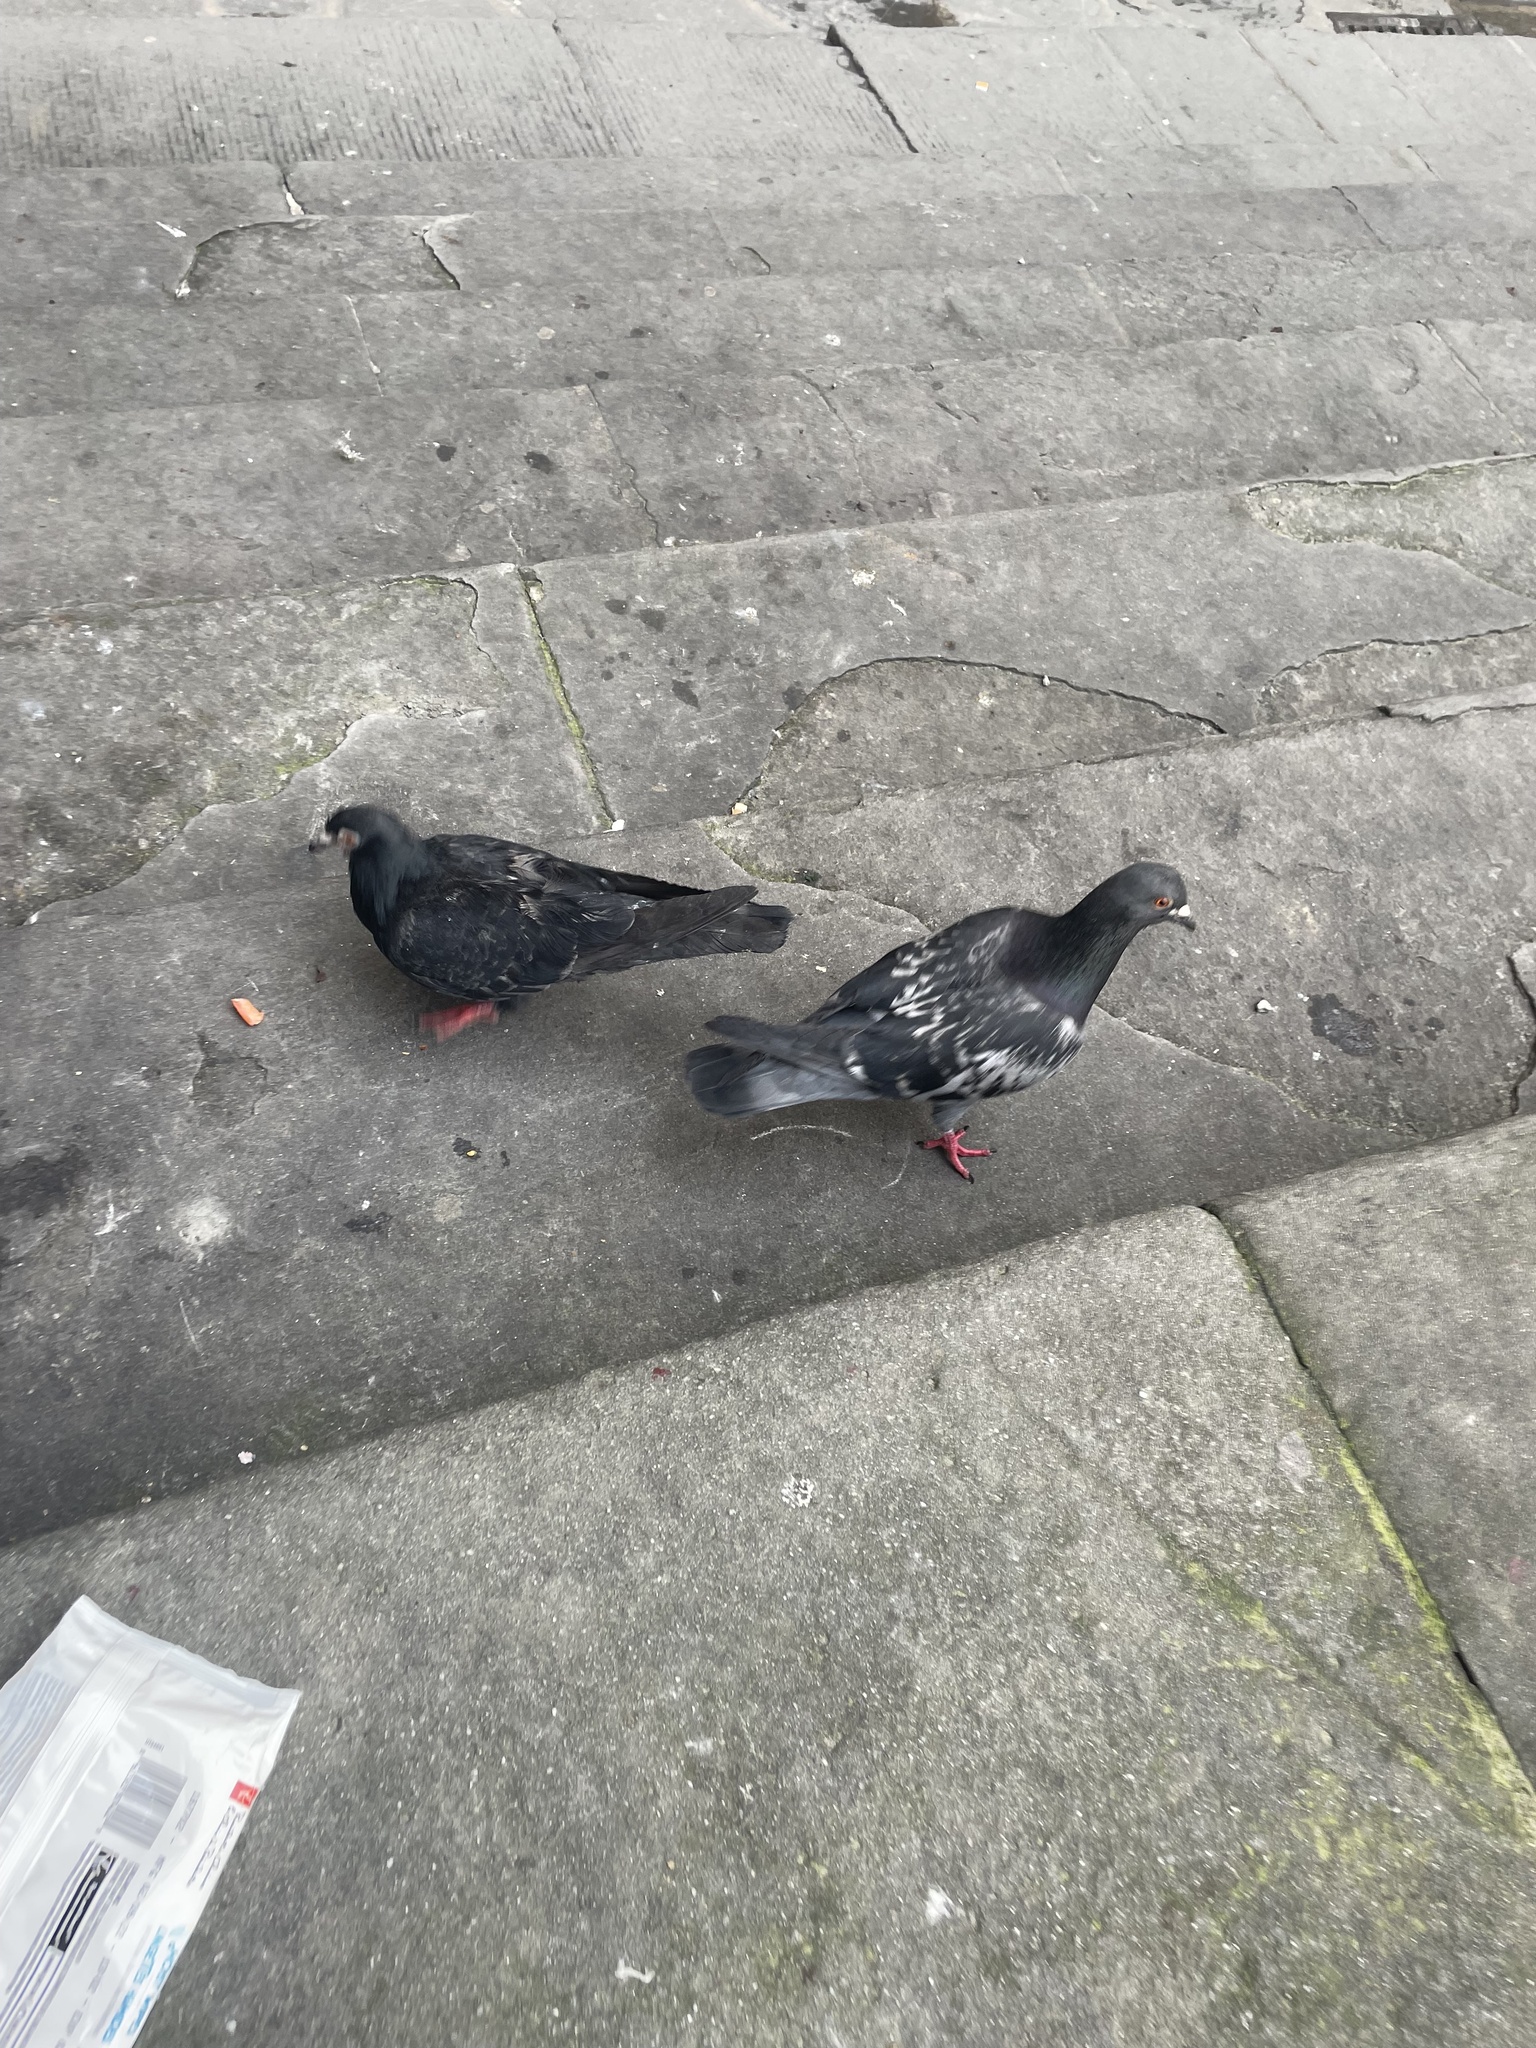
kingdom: Animalia
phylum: Chordata
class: Aves
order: Columbiformes
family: Columbidae
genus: Columba
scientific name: Columba livia
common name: Rock pigeon
